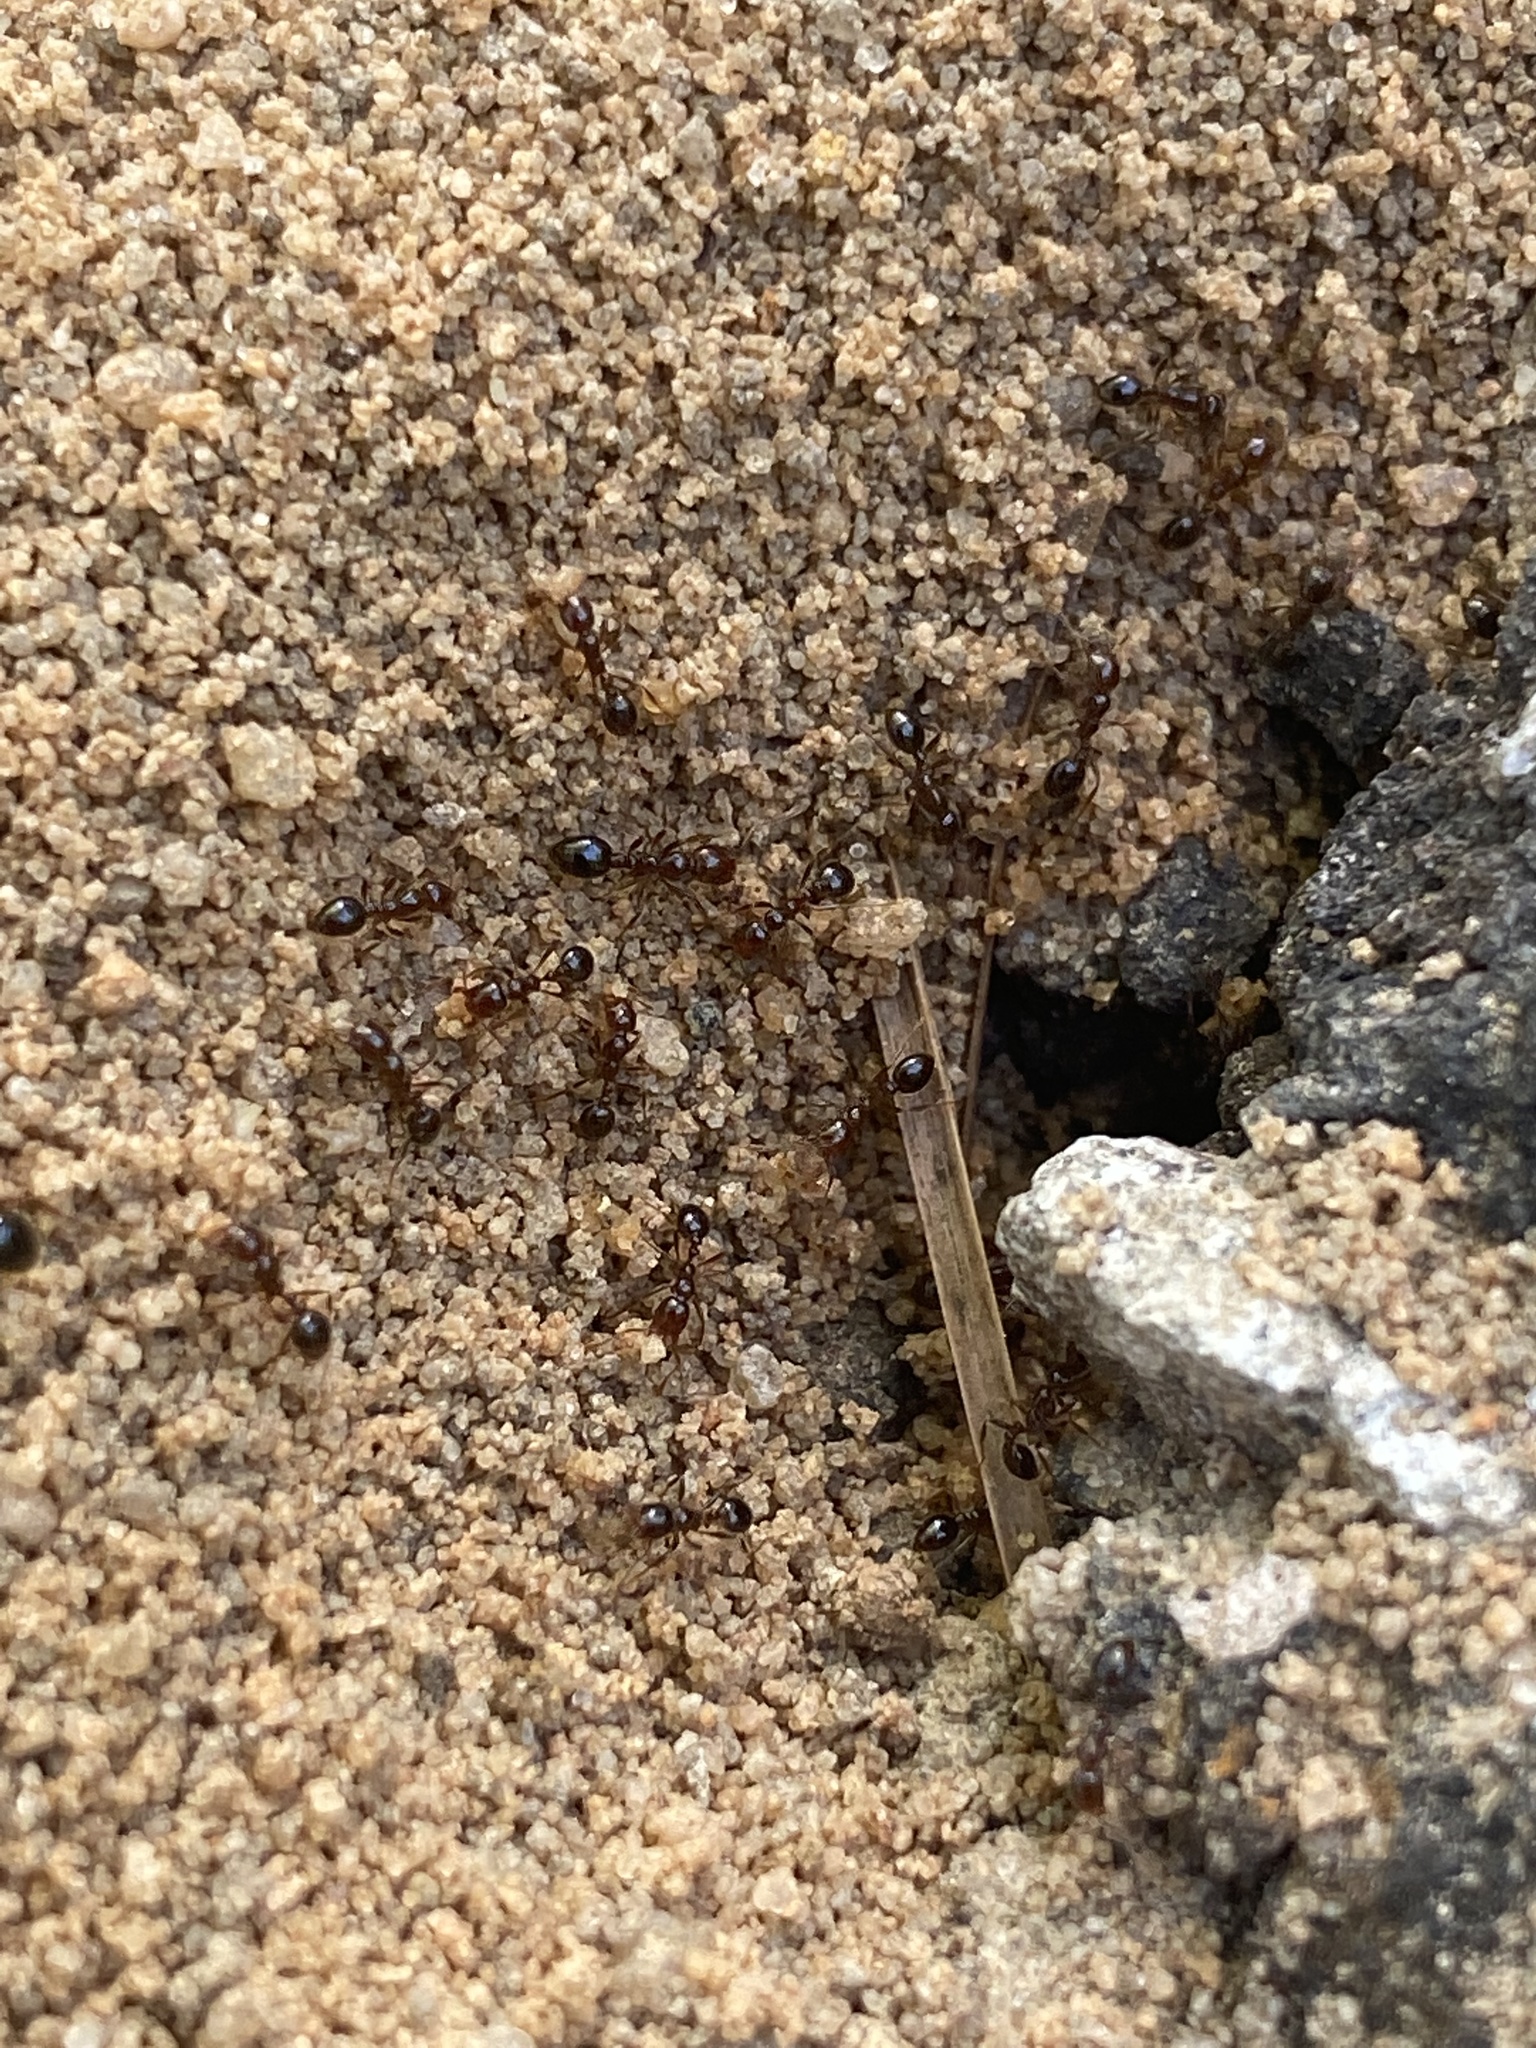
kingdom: Animalia
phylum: Arthropoda
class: Insecta
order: Hymenoptera
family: Formicidae
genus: Solenopsis
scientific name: Solenopsis invicta
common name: Red imported fire ant
